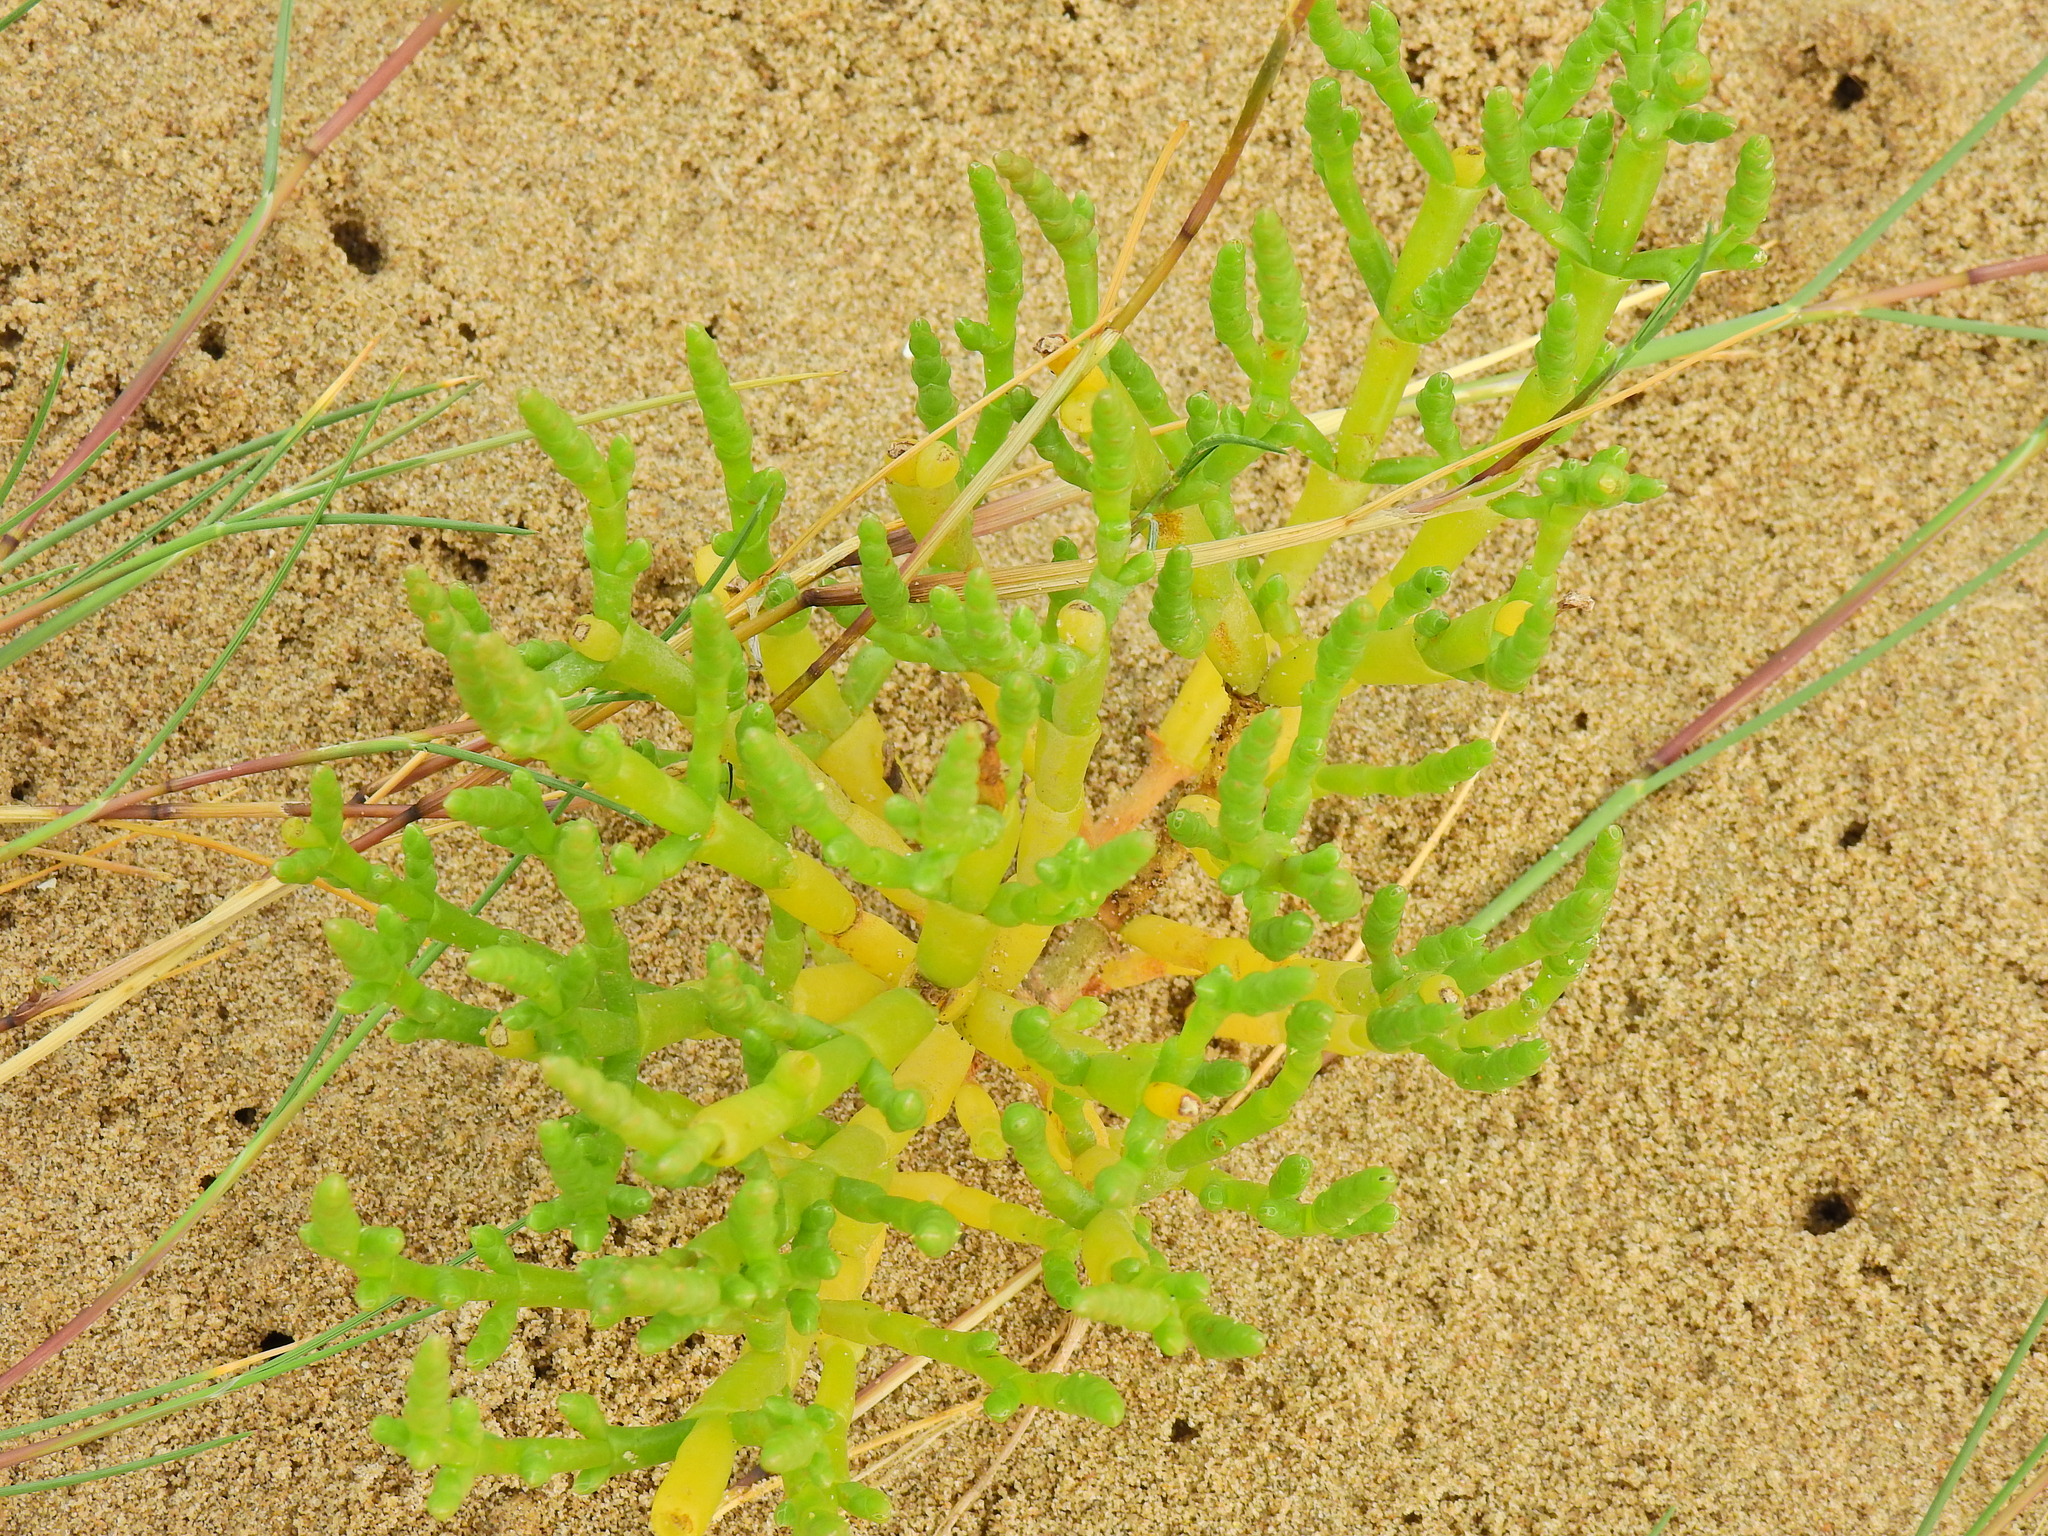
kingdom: Plantae
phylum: Tracheophyta
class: Magnoliopsida
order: Caryophyllales
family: Amaranthaceae
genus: Salicornia
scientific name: Salicornia europaea
